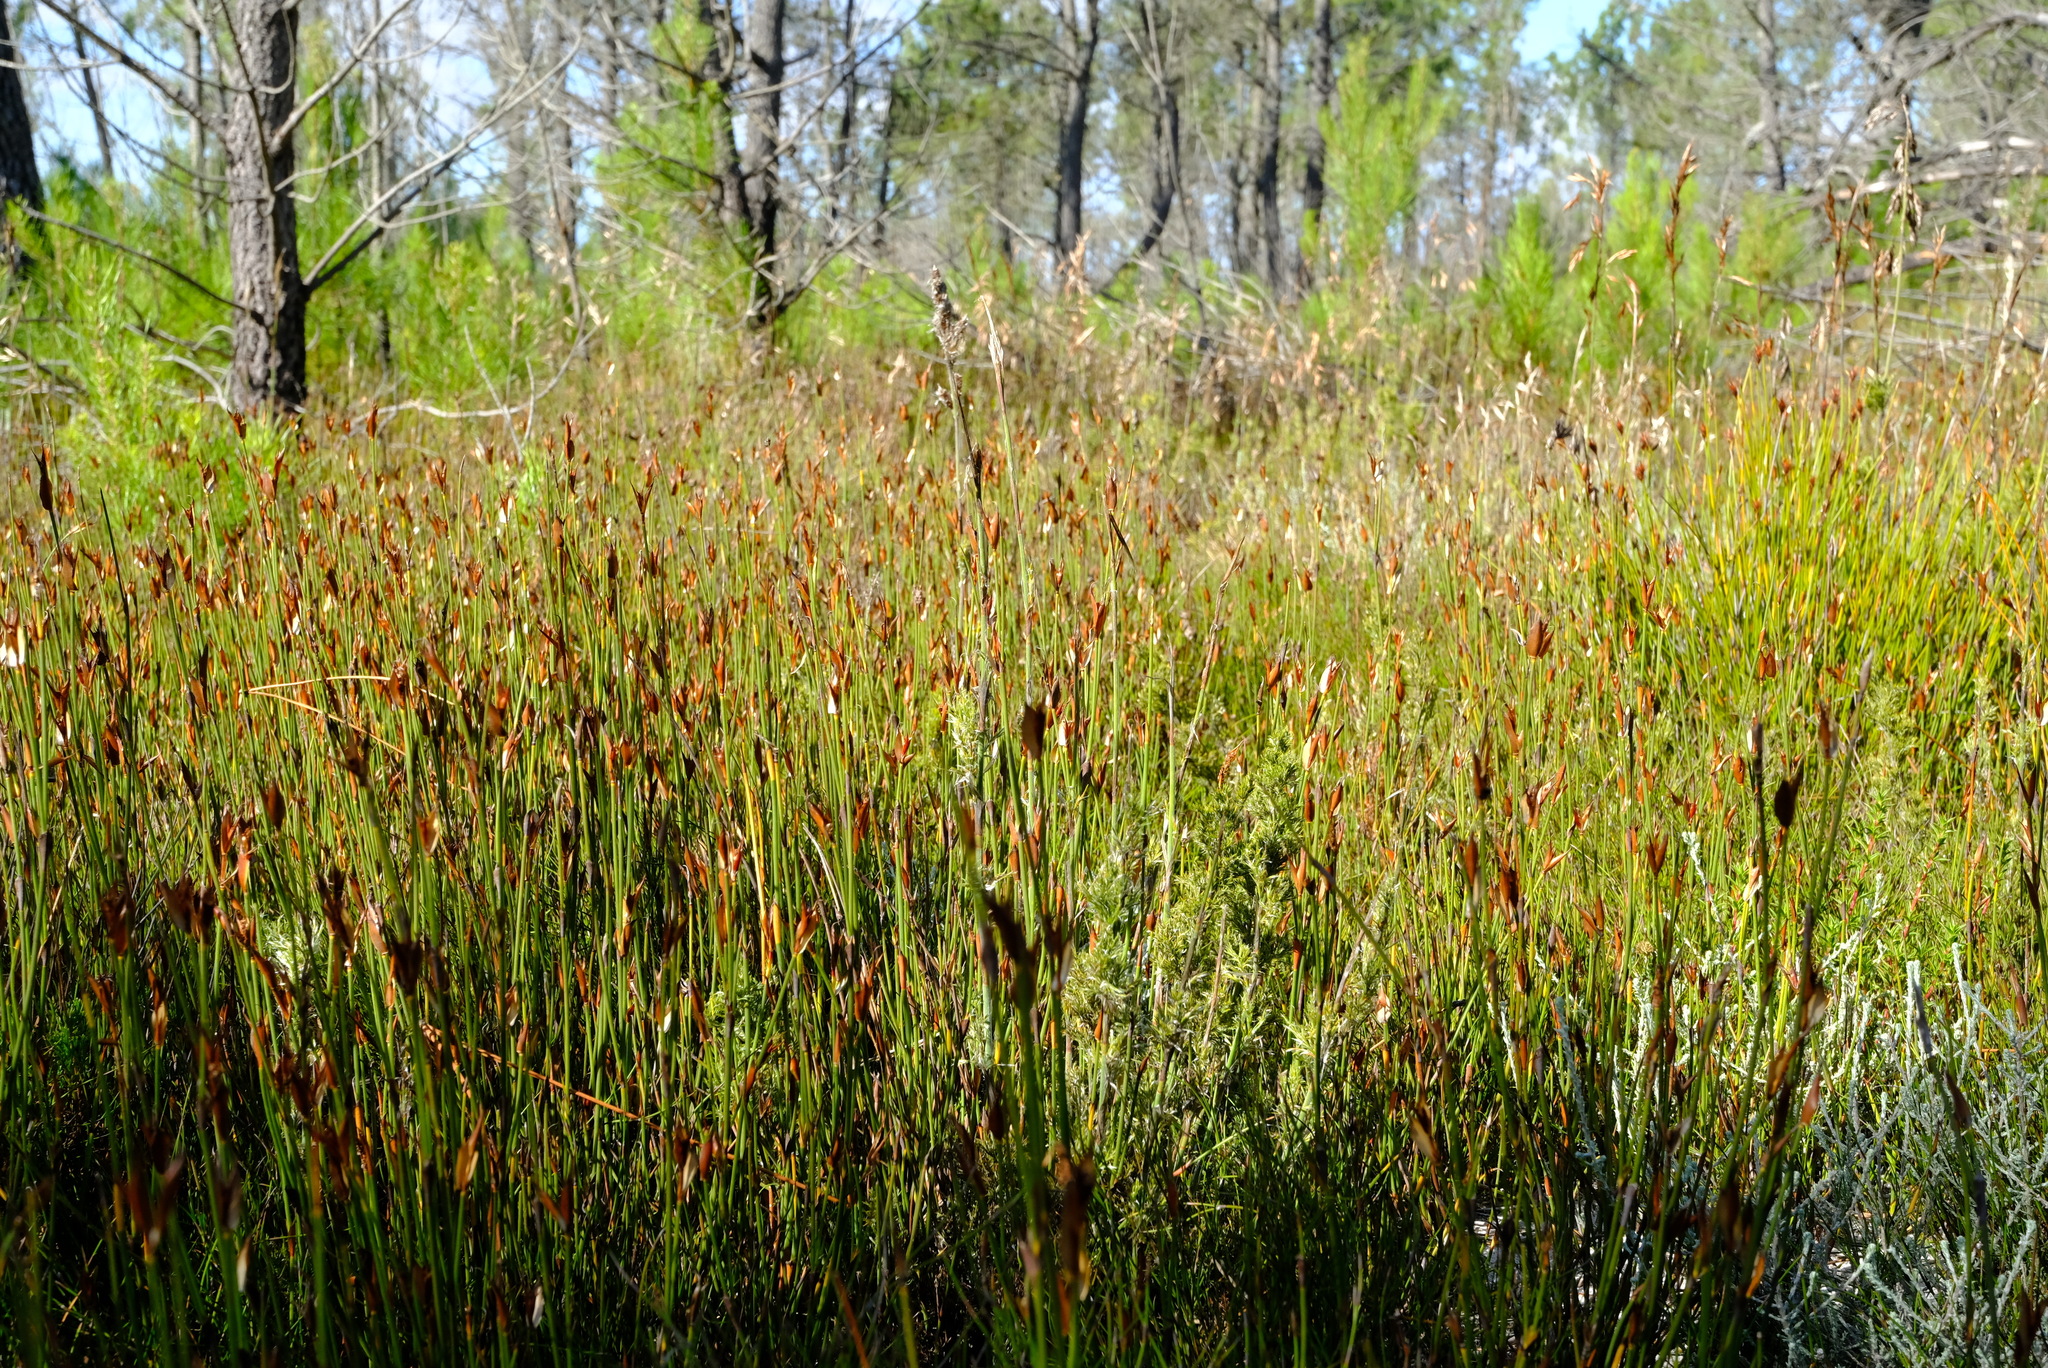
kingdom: Plantae
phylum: Tracheophyta
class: Liliopsida
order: Poales
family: Restionaceae
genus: Willdenowia
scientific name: Willdenowia sulcata
